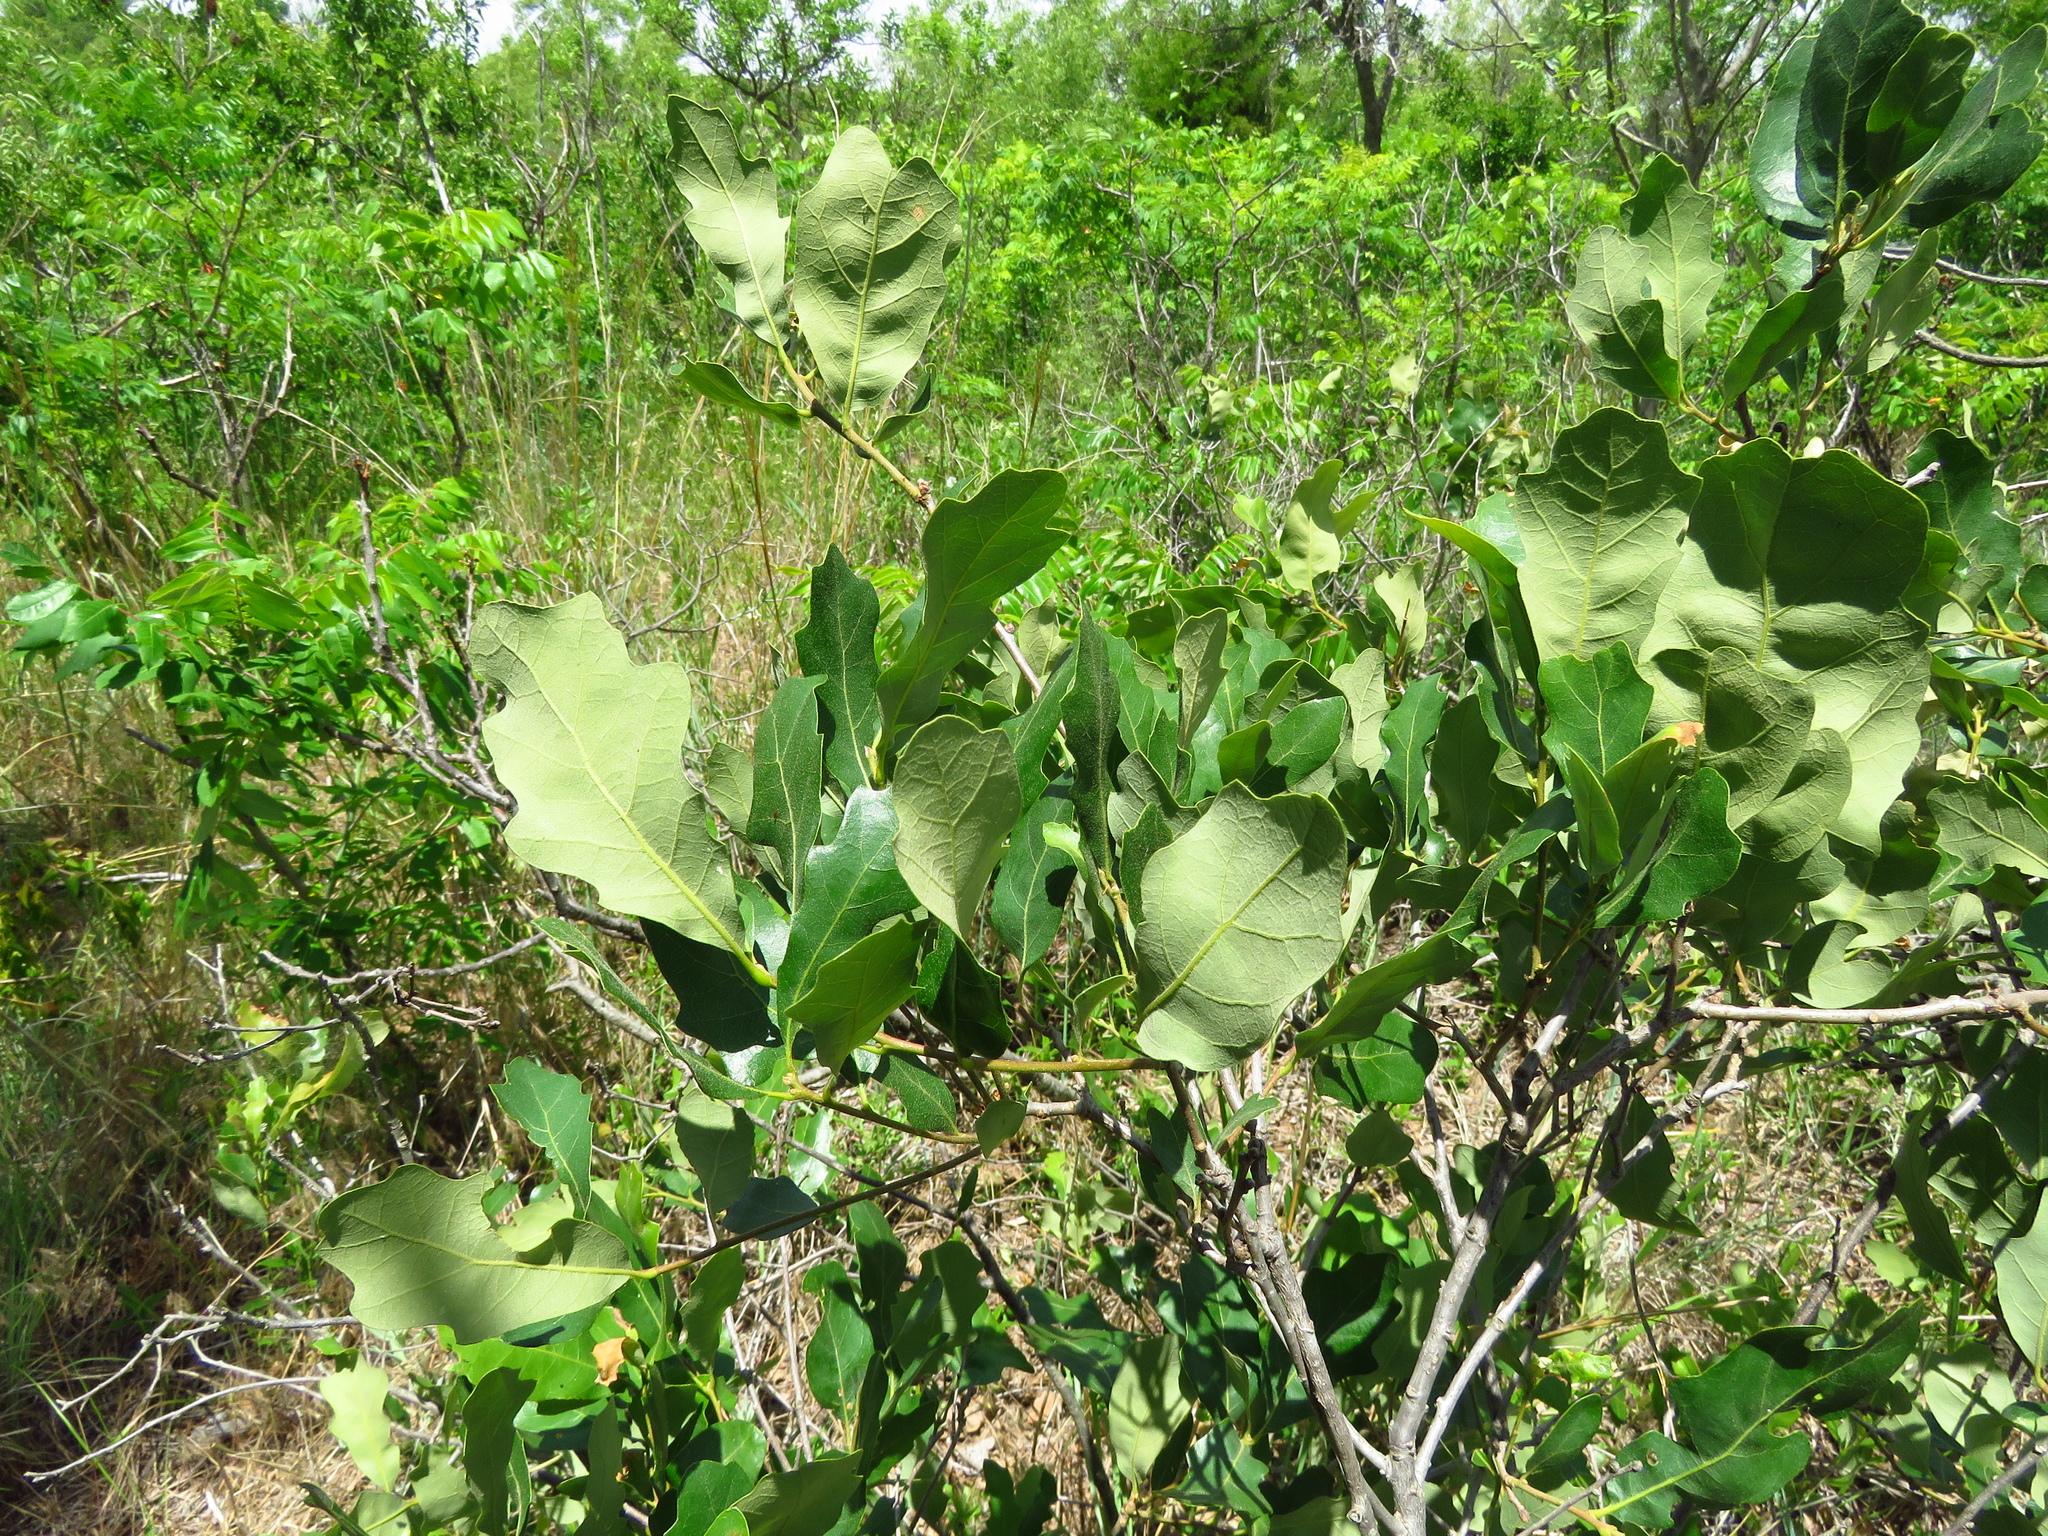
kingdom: Plantae
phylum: Tracheophyta
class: Magnoliopsida
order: Fagales
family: Fagaceae
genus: Quercus
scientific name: Quercus havardii
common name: Shinnery oak
